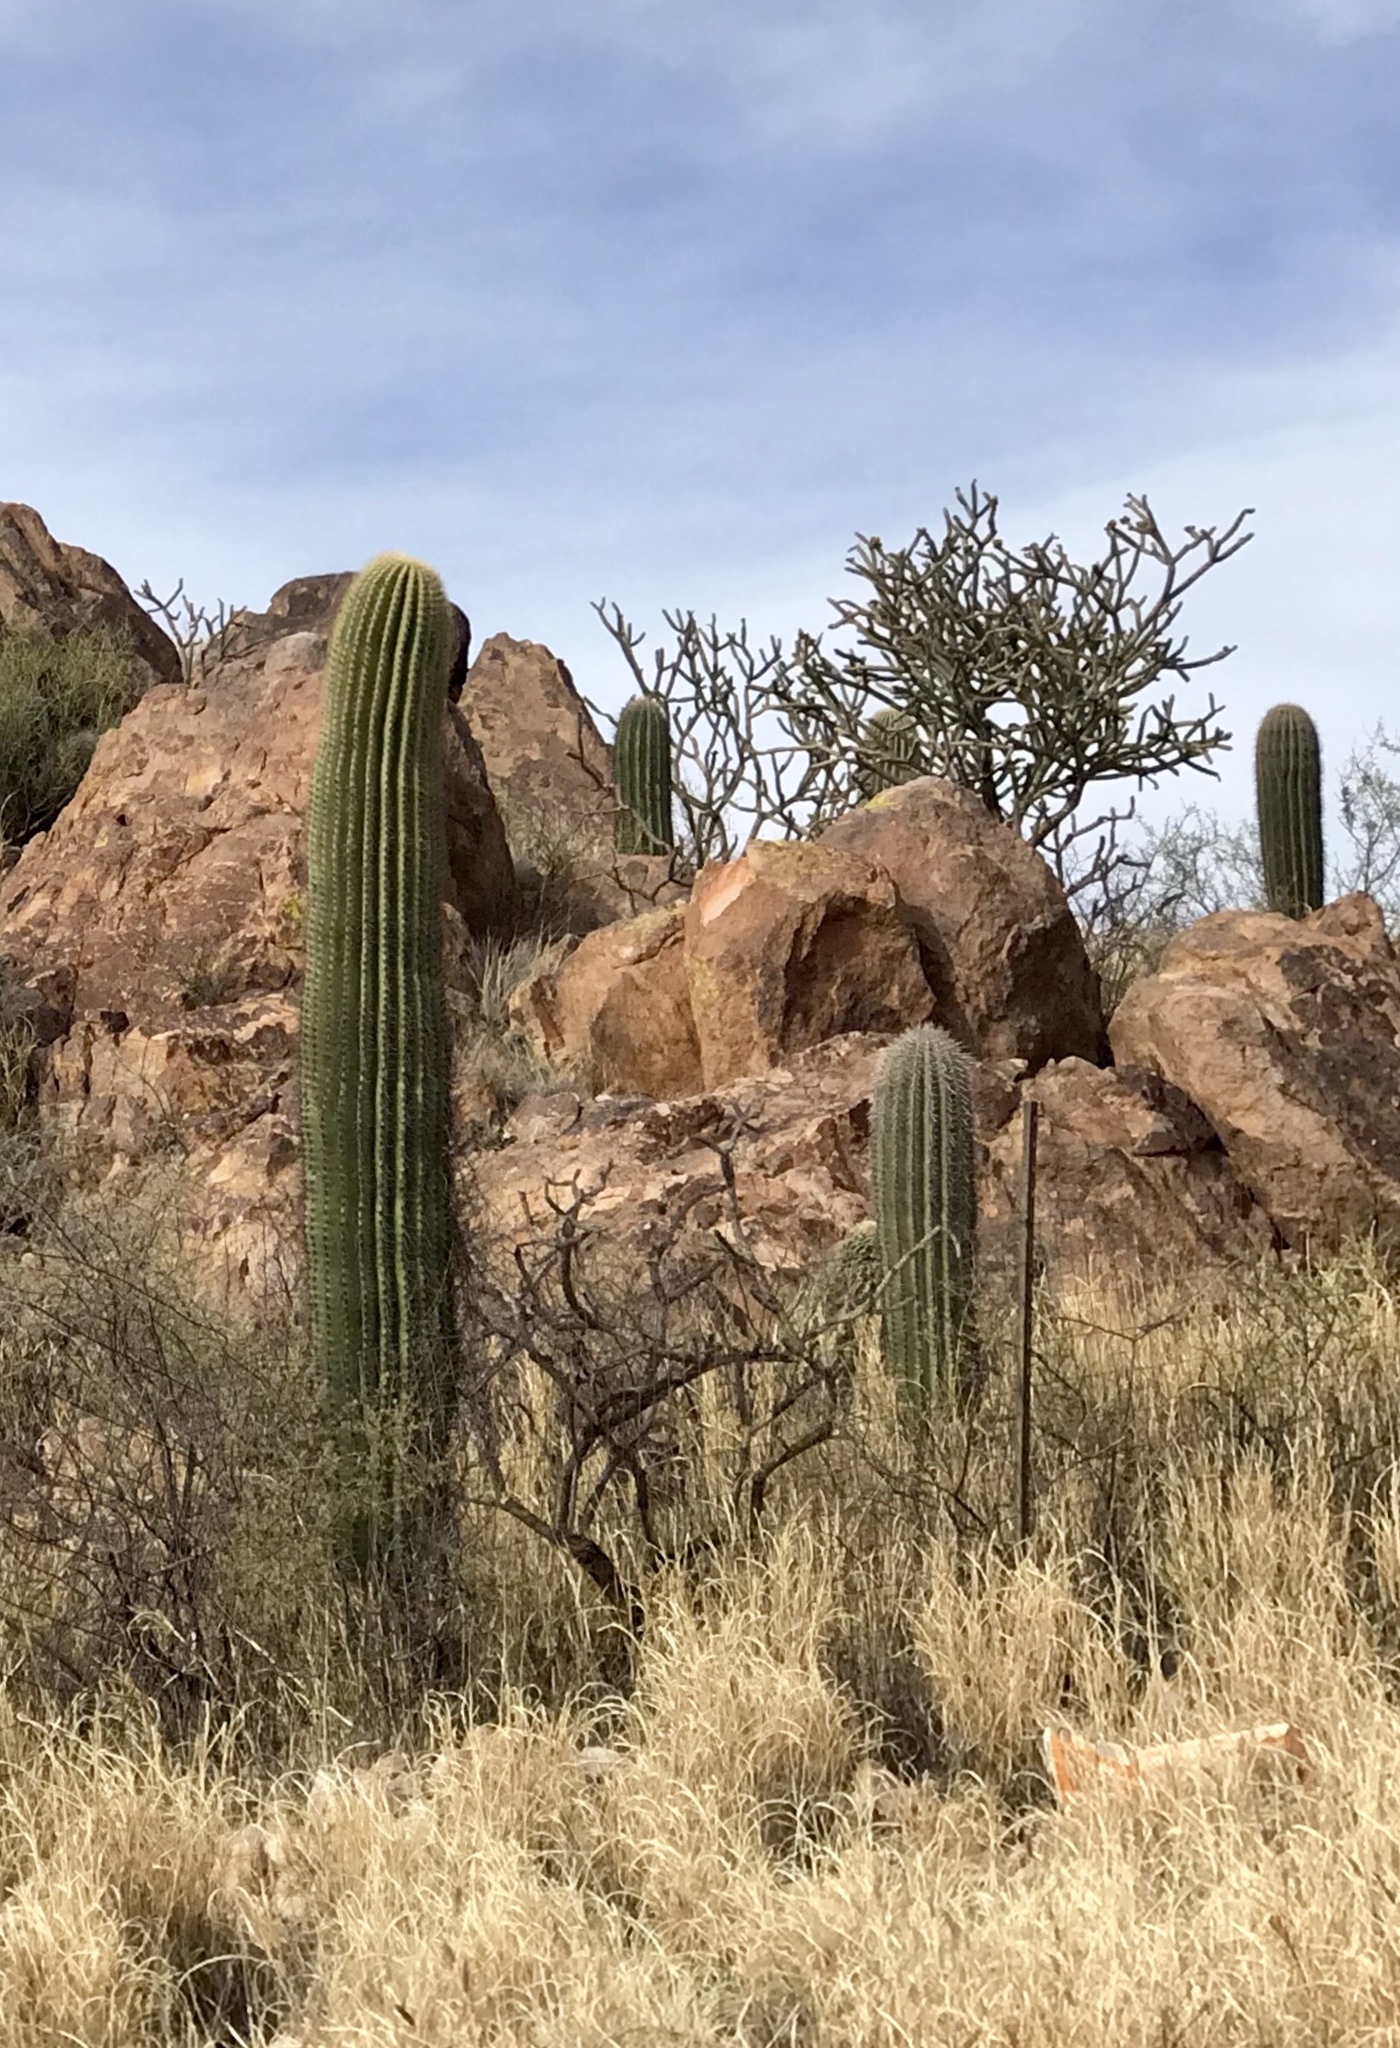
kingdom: Plantae
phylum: Tracheophyta
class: Magnoliopsida
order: Caryophyllales
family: Cactaceae
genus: Carnegiea
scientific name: Carnegiea gigantea
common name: Saguaro
